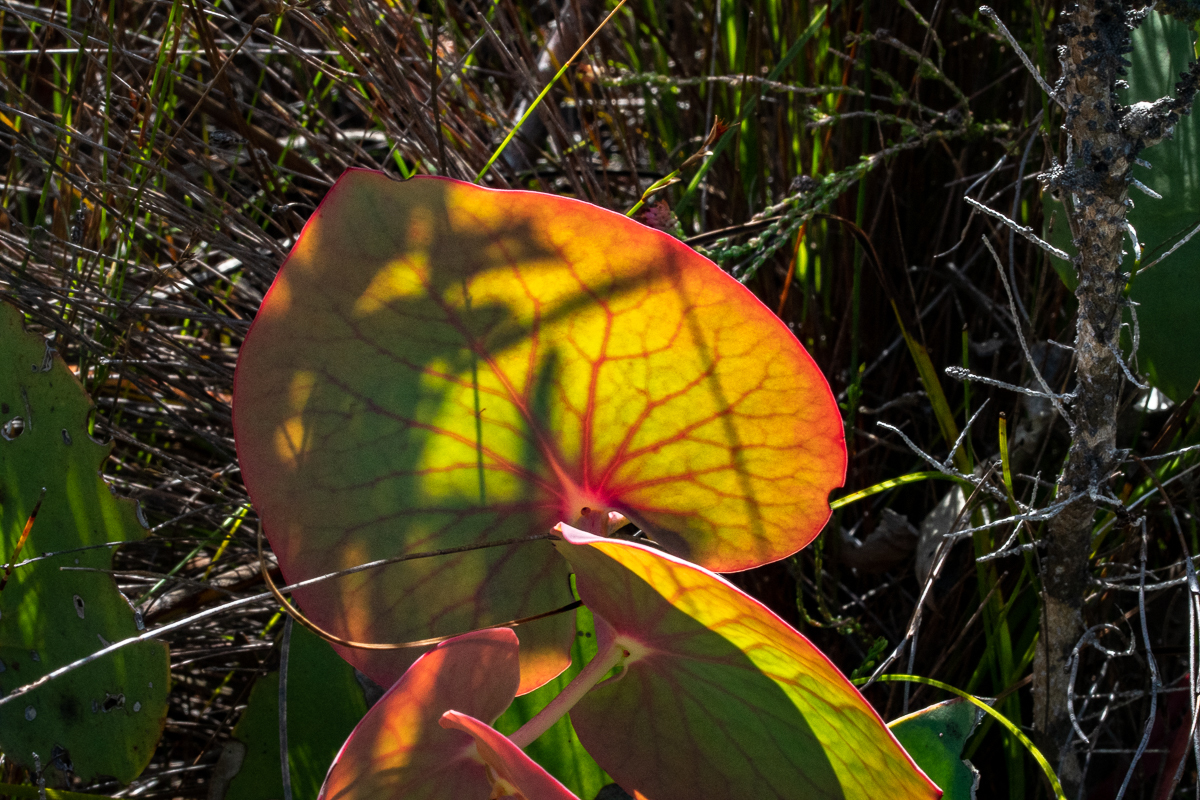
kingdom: Plantae
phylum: Tracheophyta
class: Magnoliopsida
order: Proteales
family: Proteaceae
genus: Protea
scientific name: Protea cordata
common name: Heart-leaf sugarbush
